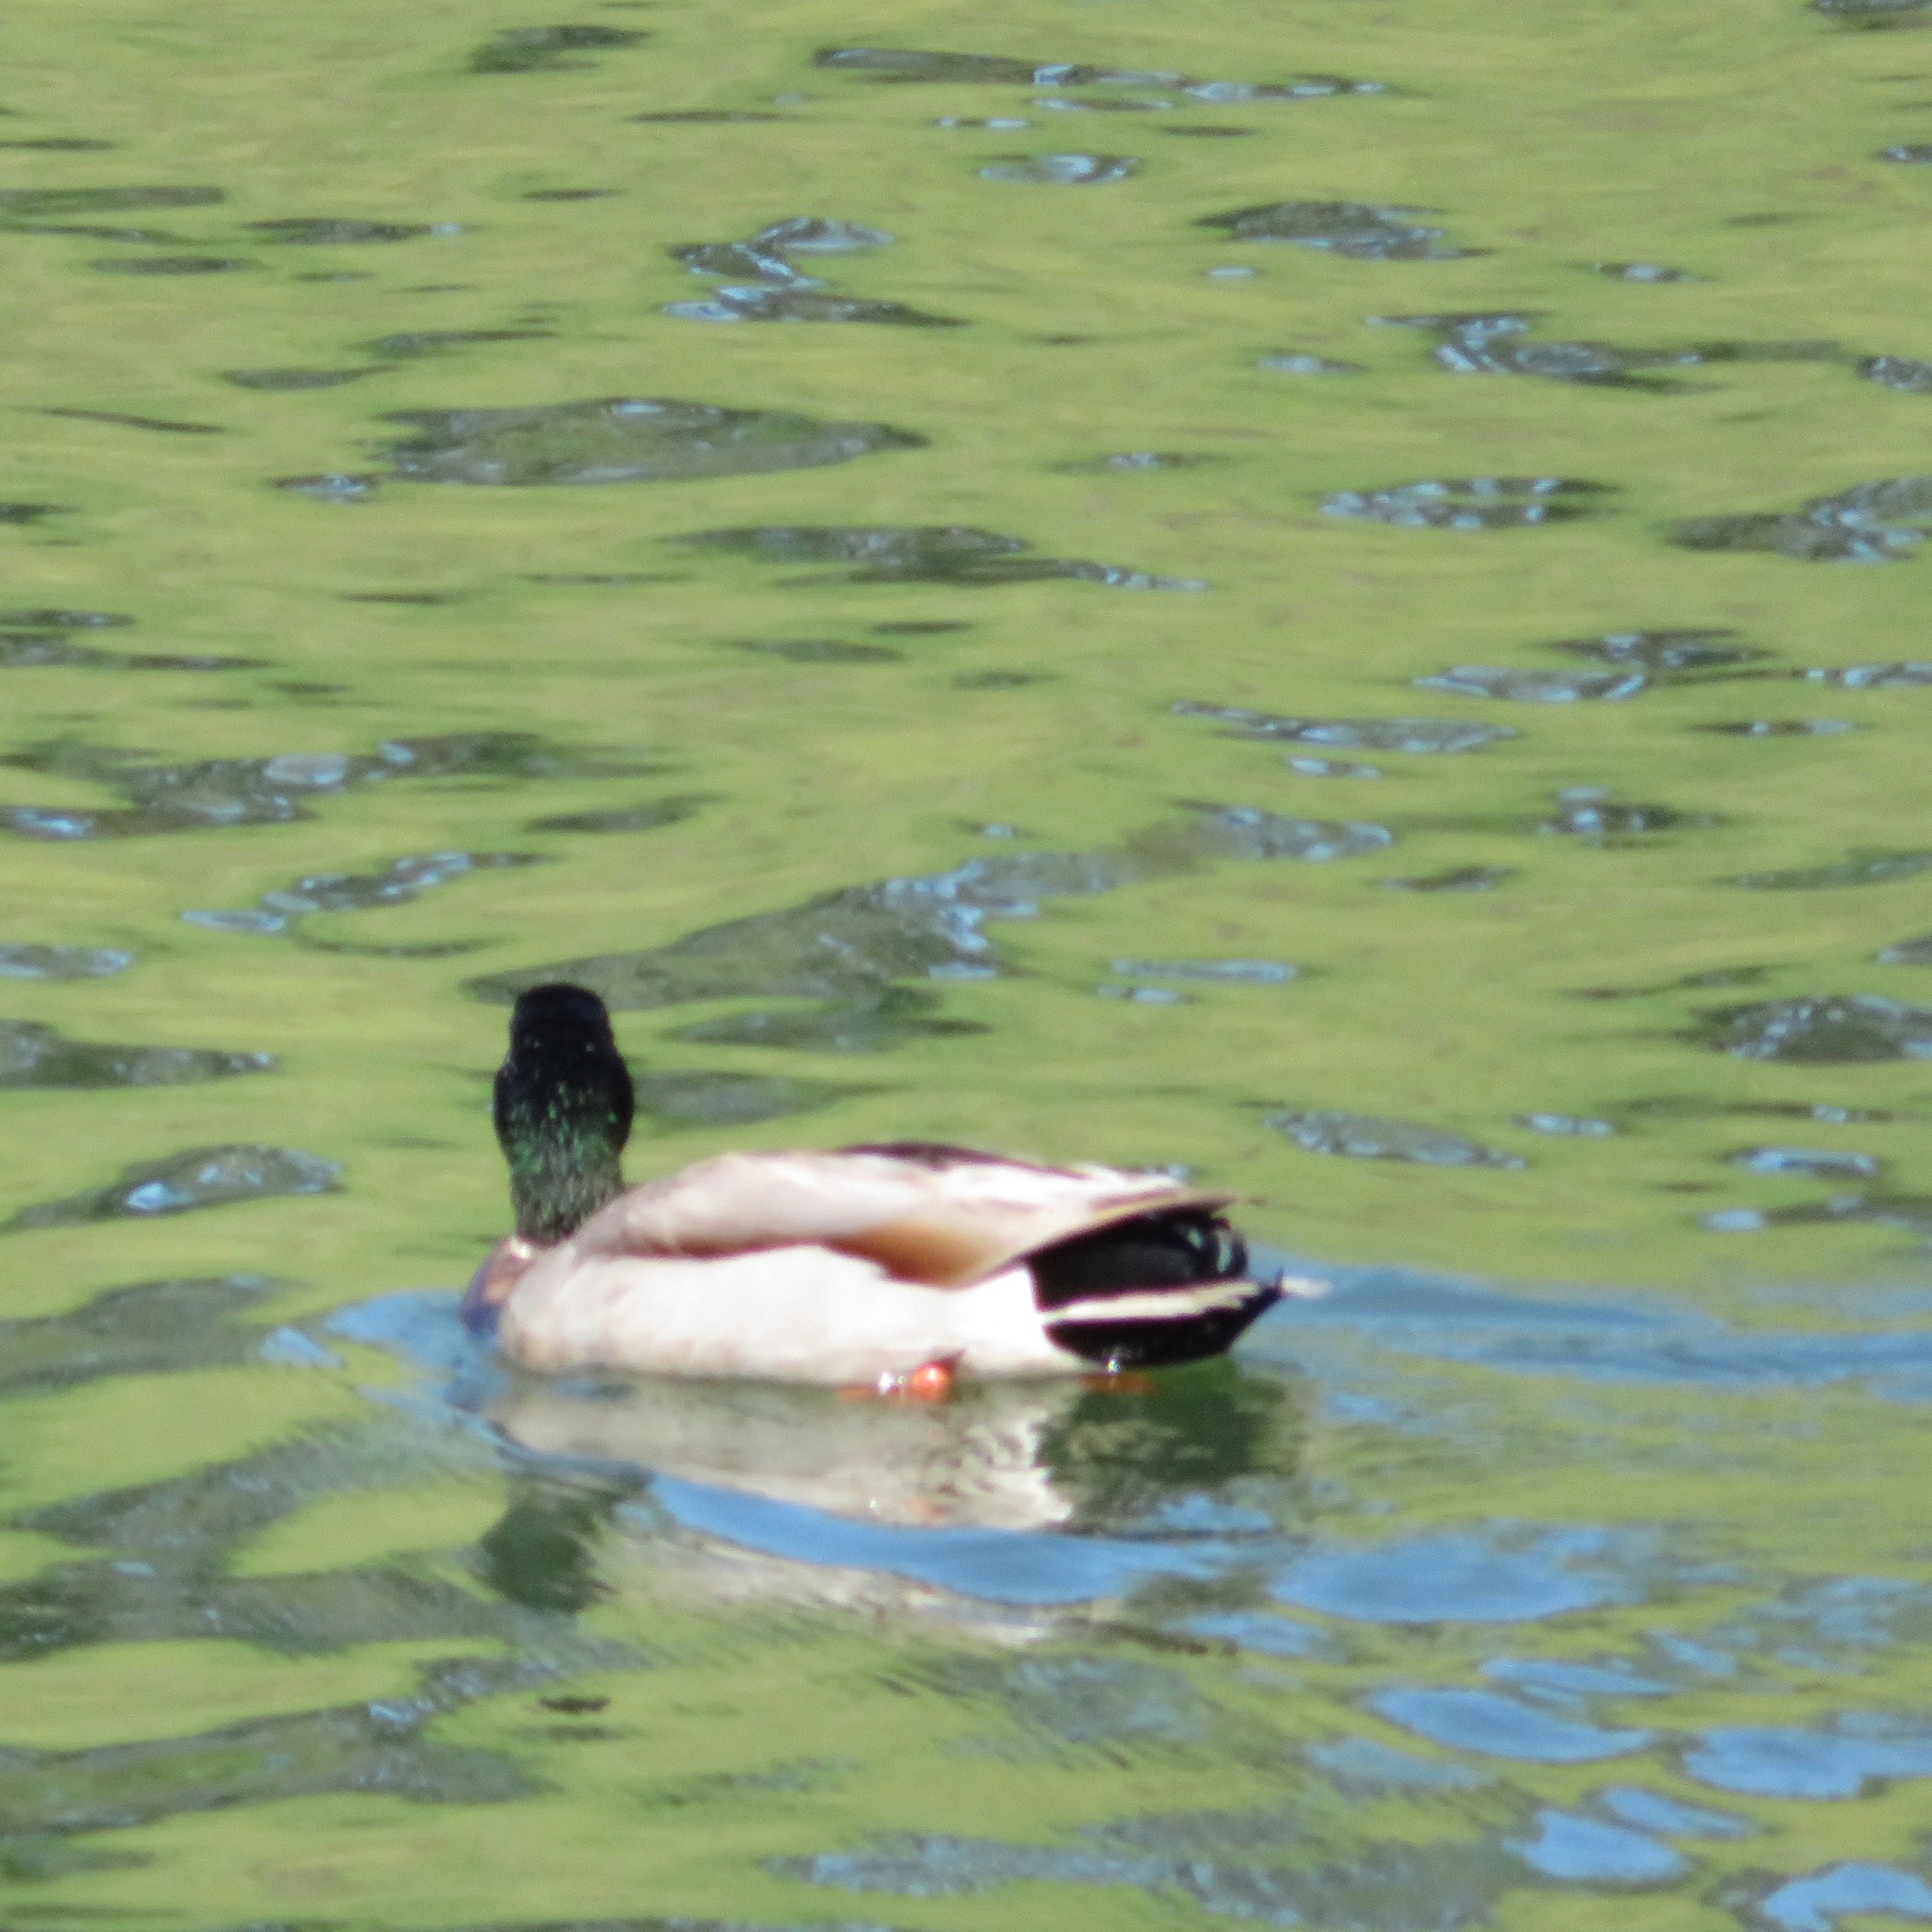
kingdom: Animalia
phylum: Chordata
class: Aves
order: Anseriformes
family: Anatidae
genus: Anas
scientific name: Anas platyrhynchos
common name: Mallard
